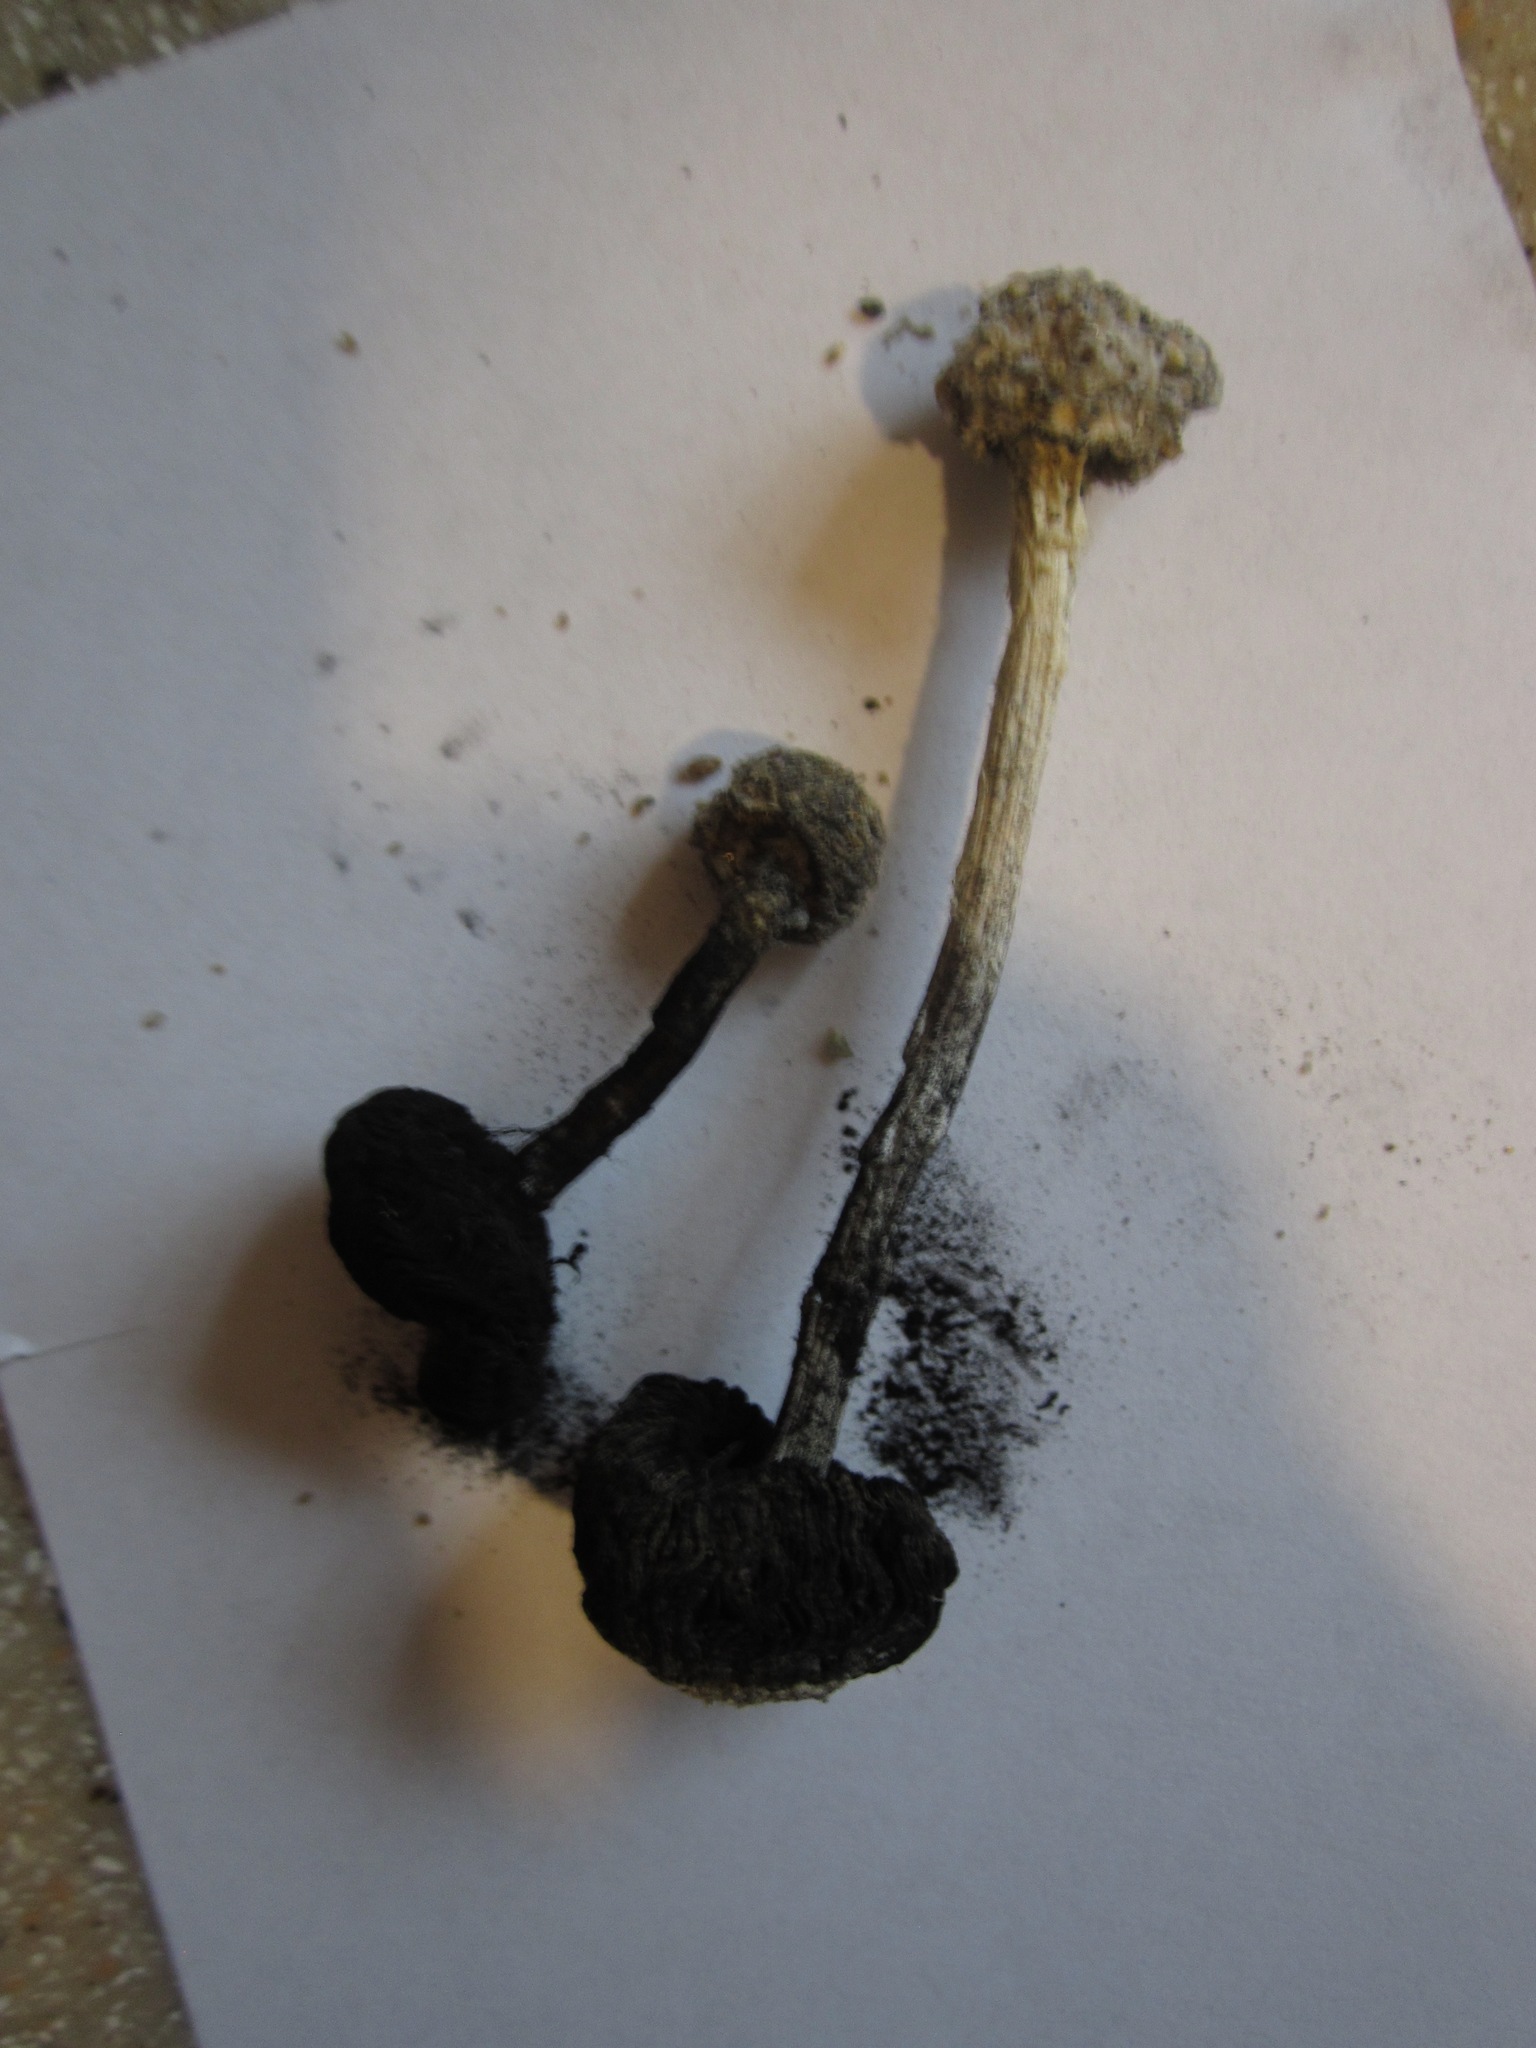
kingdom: Fungi
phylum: Basidiomycota
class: Agaricomycetes
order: Agaricales
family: Agaricaceae
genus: Montagnea
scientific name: Montagnea arenaria
